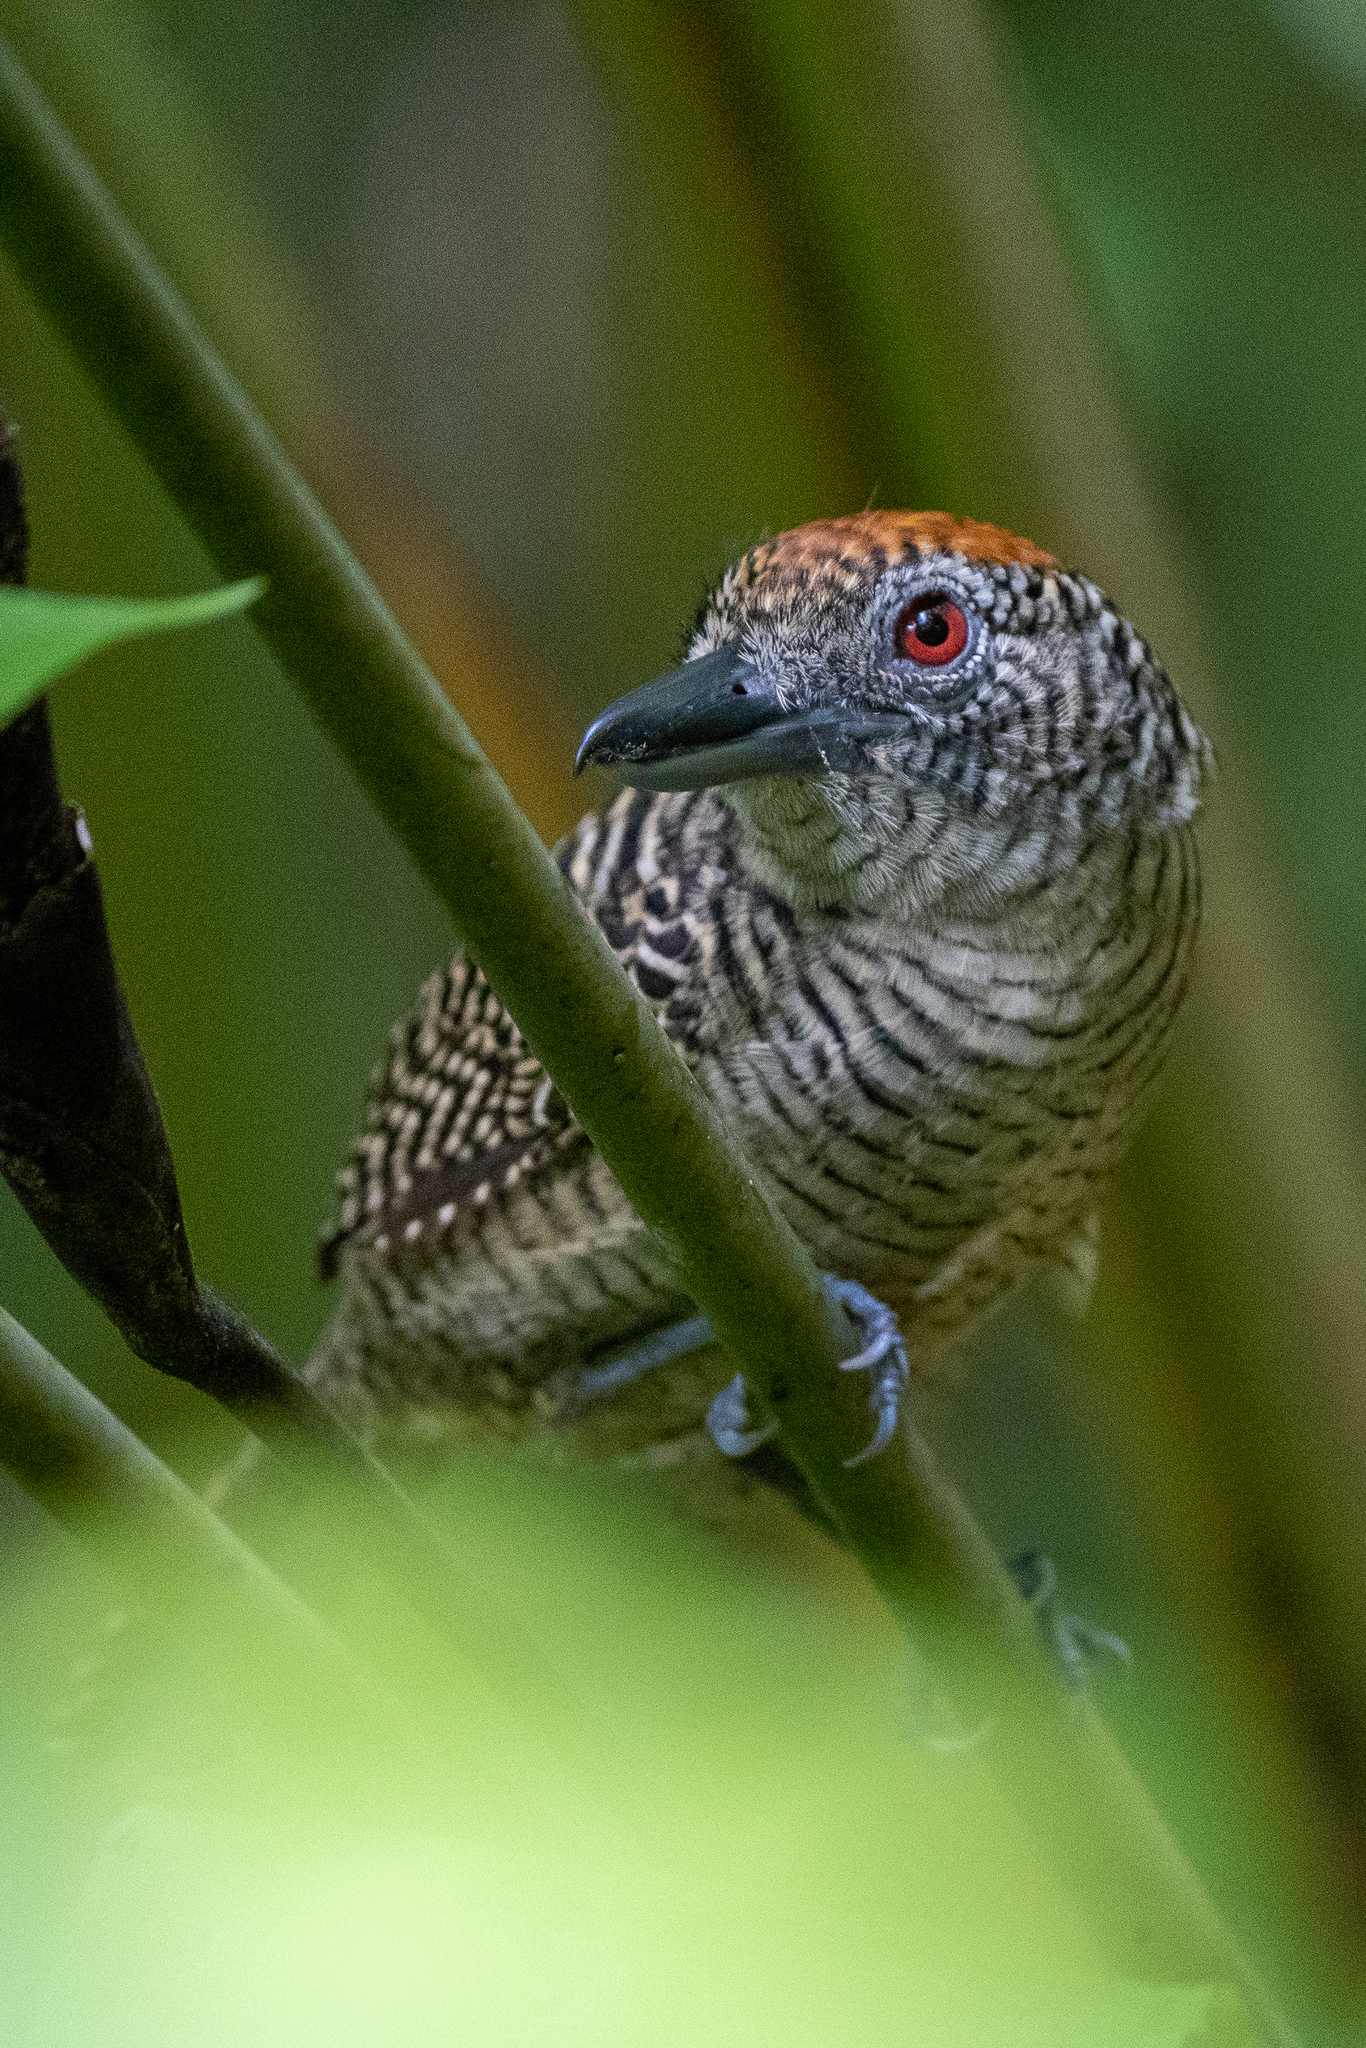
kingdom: Animalia
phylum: Chordata
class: Aves
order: Passeriformes
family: Thamnophilidae
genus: Cymbilaimus
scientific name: Cymbilaimus lineatus
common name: Fasciated antshrike
